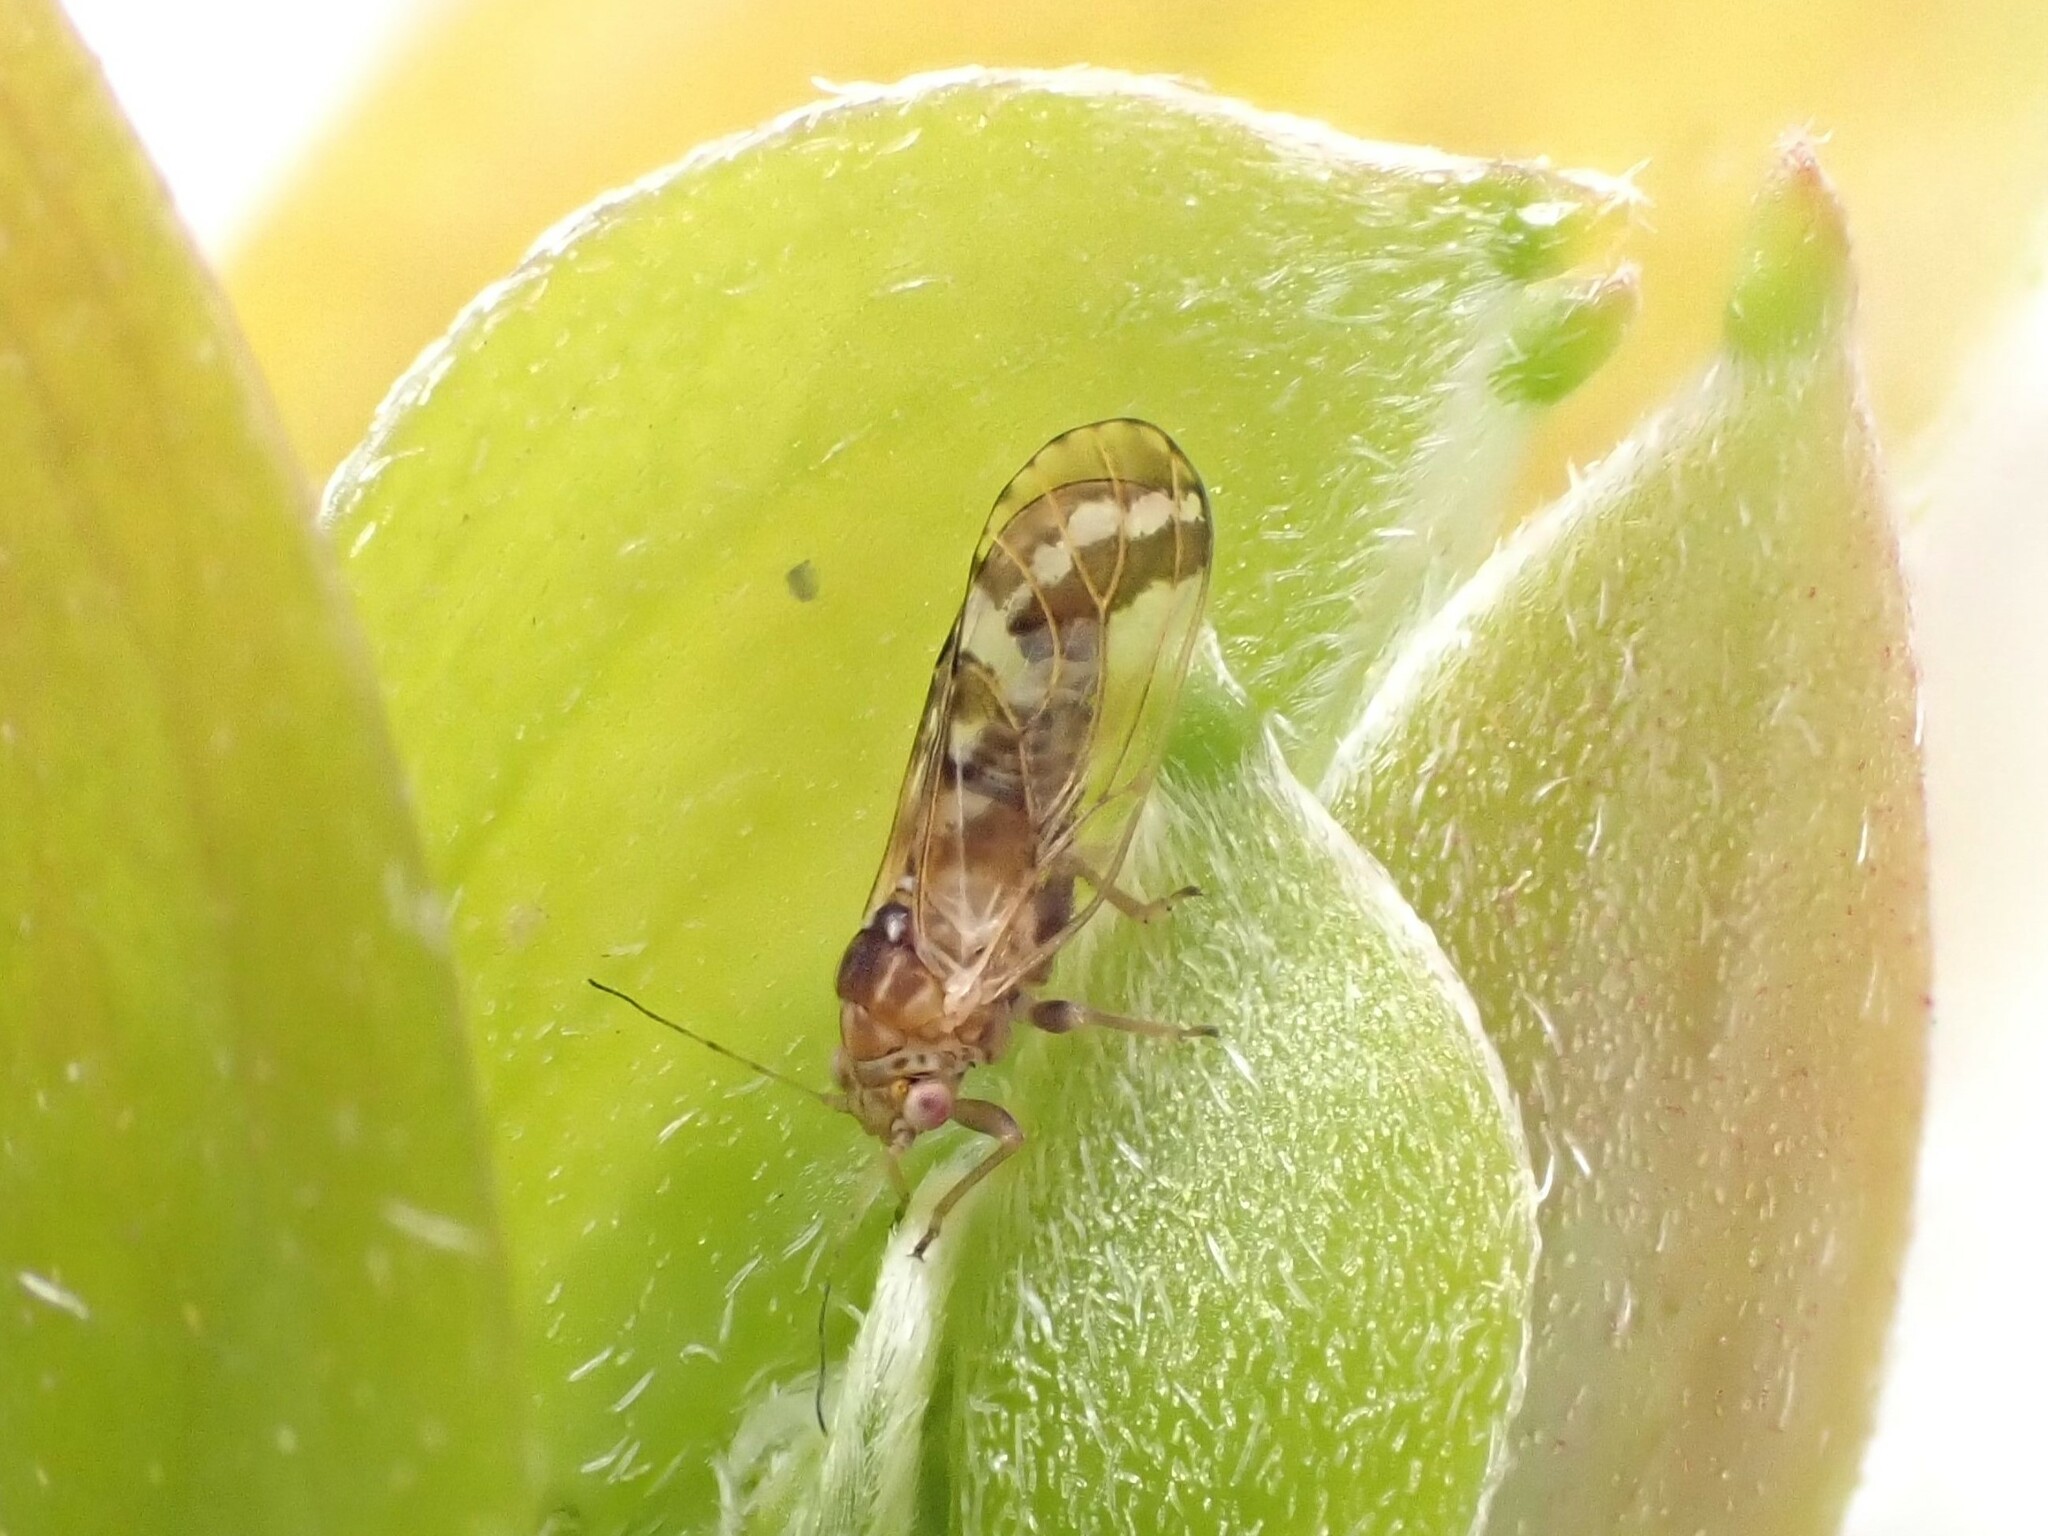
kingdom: Animalia
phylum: Arthropoda
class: Insecta
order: Hemiptera
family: Psyllidae
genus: Acizzia
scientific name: Acizzia conspicua
